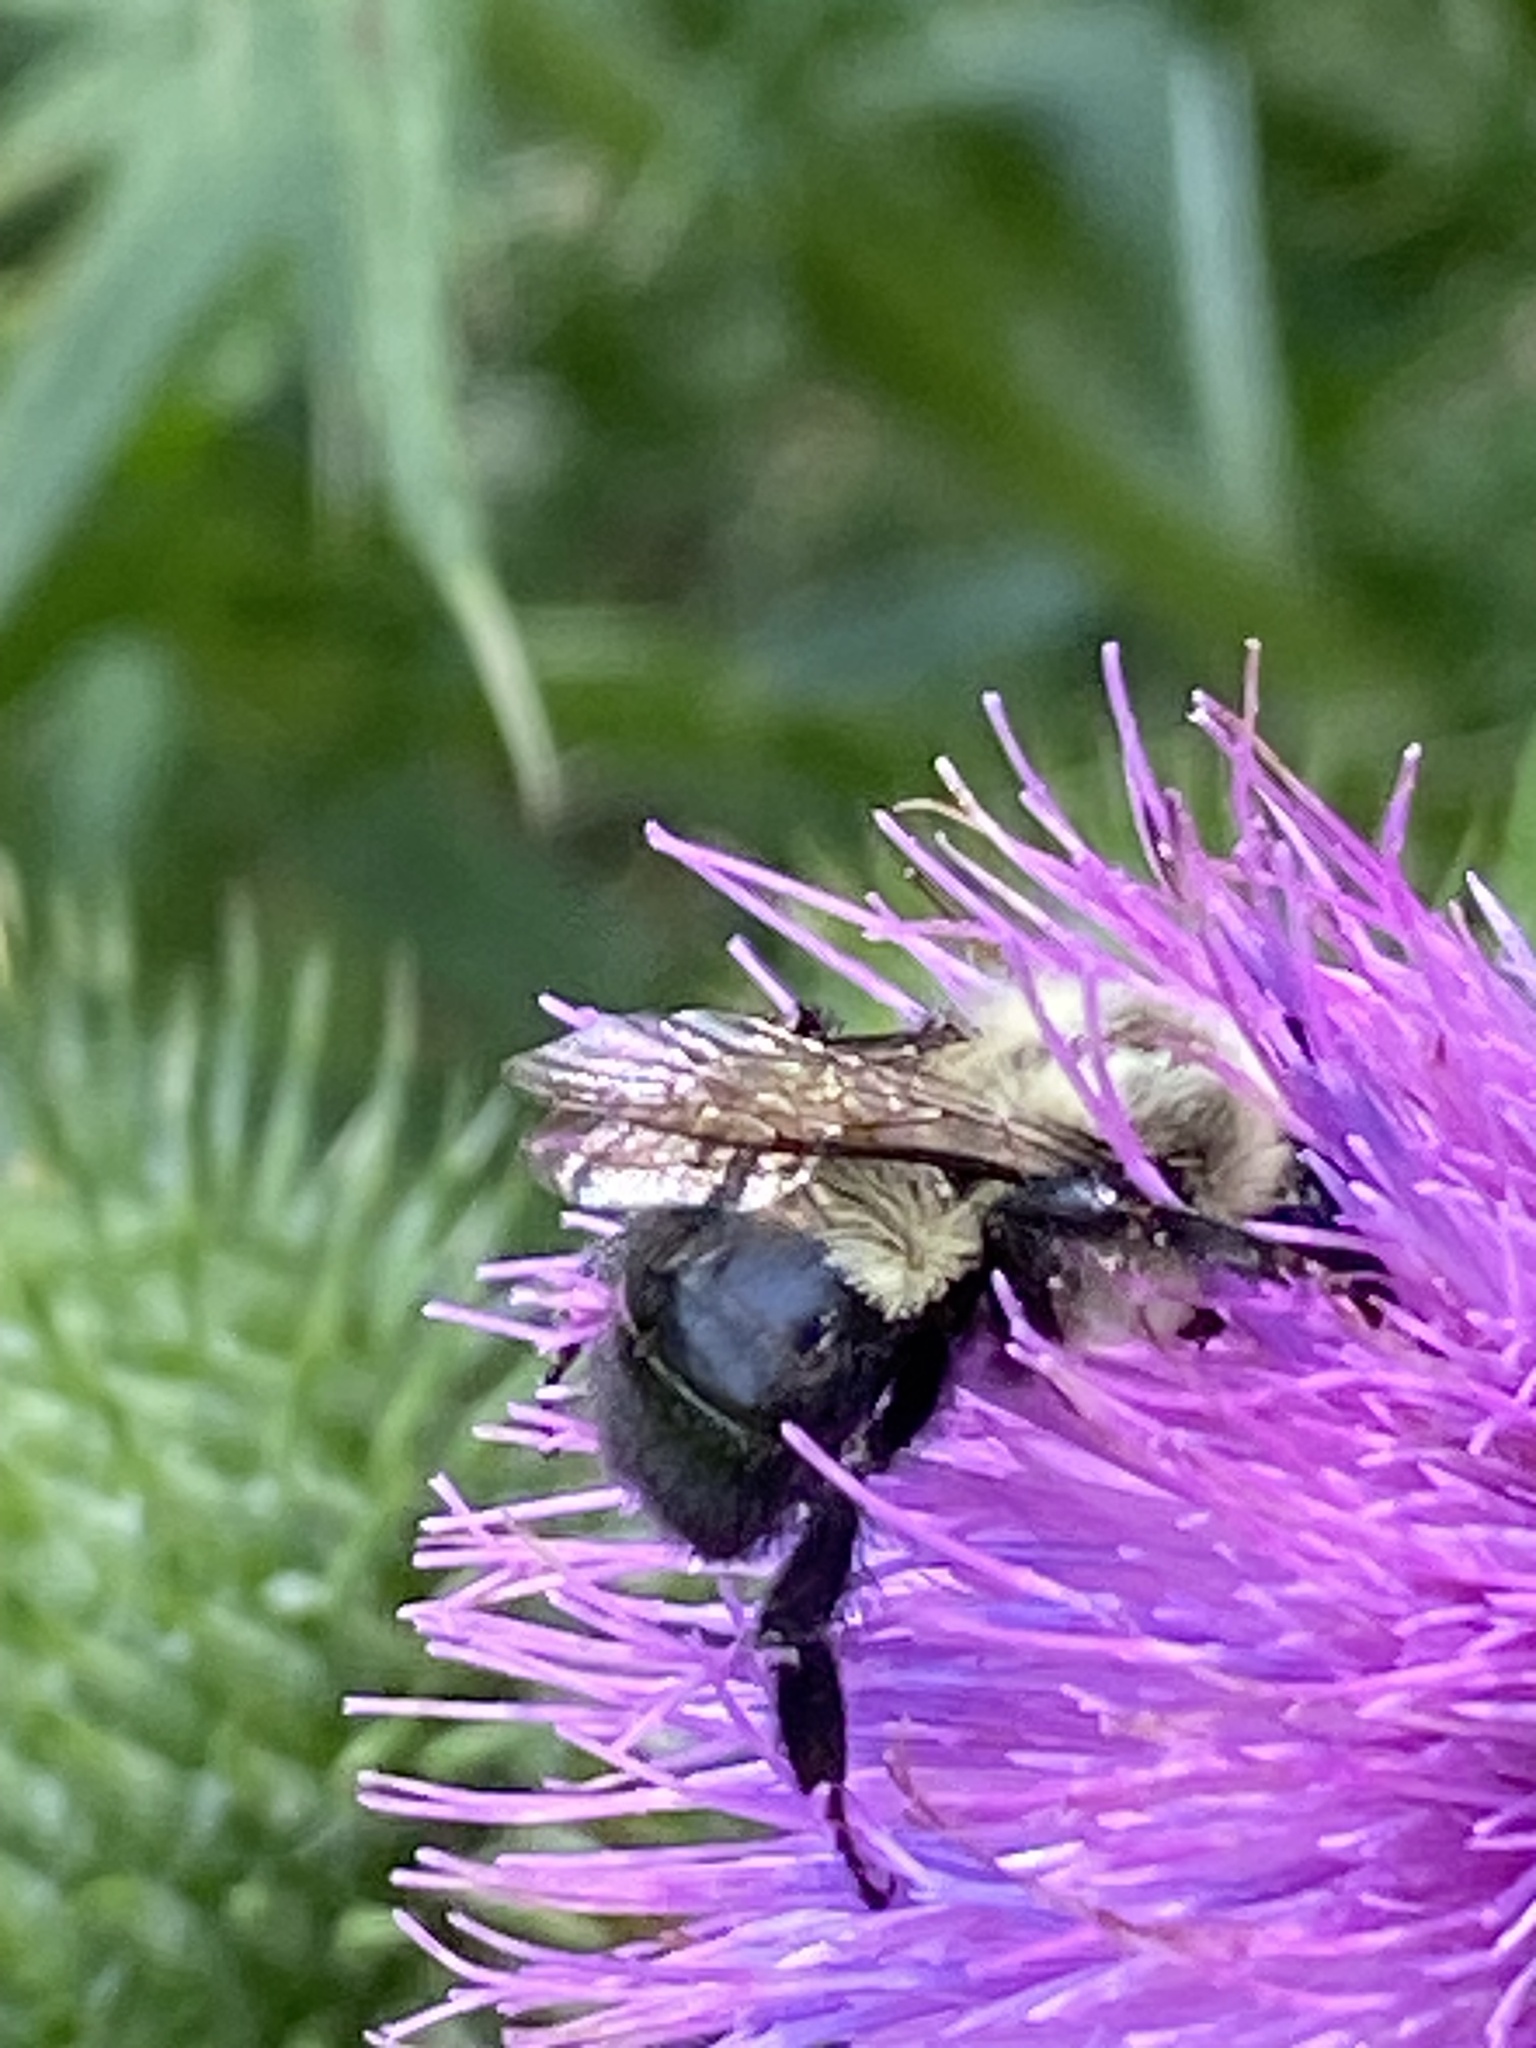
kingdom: Animalia
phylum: Arthropoda
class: Insecta
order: Hymenoptera
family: Apidae
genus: Bombus
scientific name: Bombus impatiens
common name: Common eastern bumble bee
